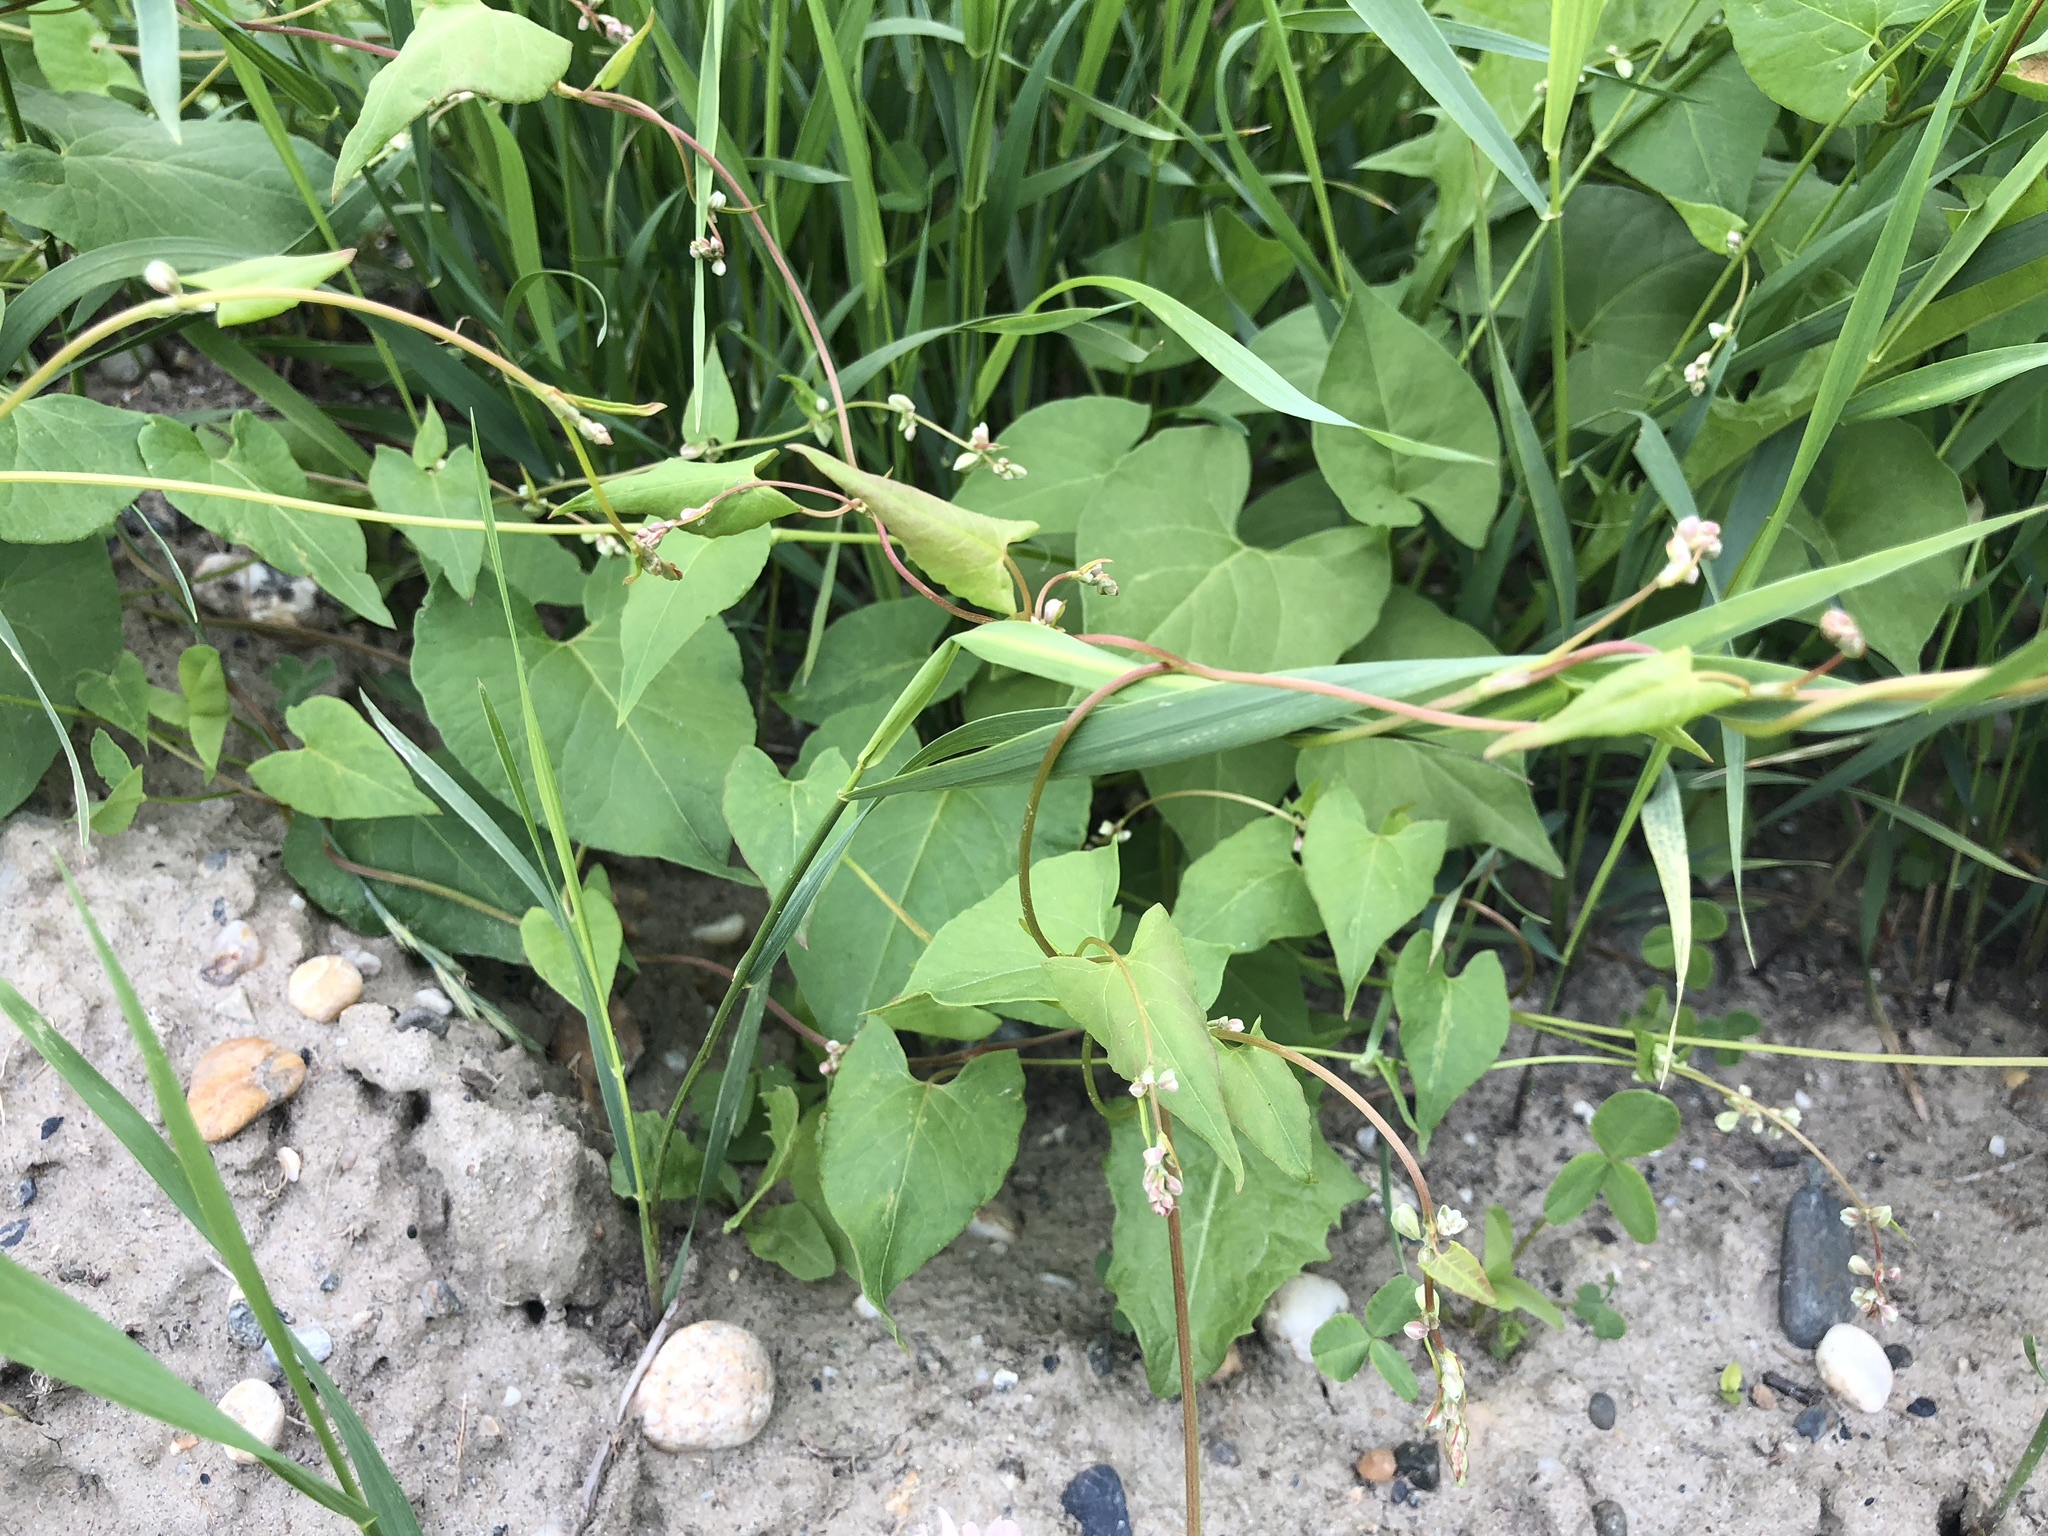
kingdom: Plantae
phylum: Tracheophyta
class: Magnoliopsida
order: Caryophyllales
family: Polygonaceae
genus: Fallopia
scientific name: Fallopia convolvulus
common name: Black bindweed
